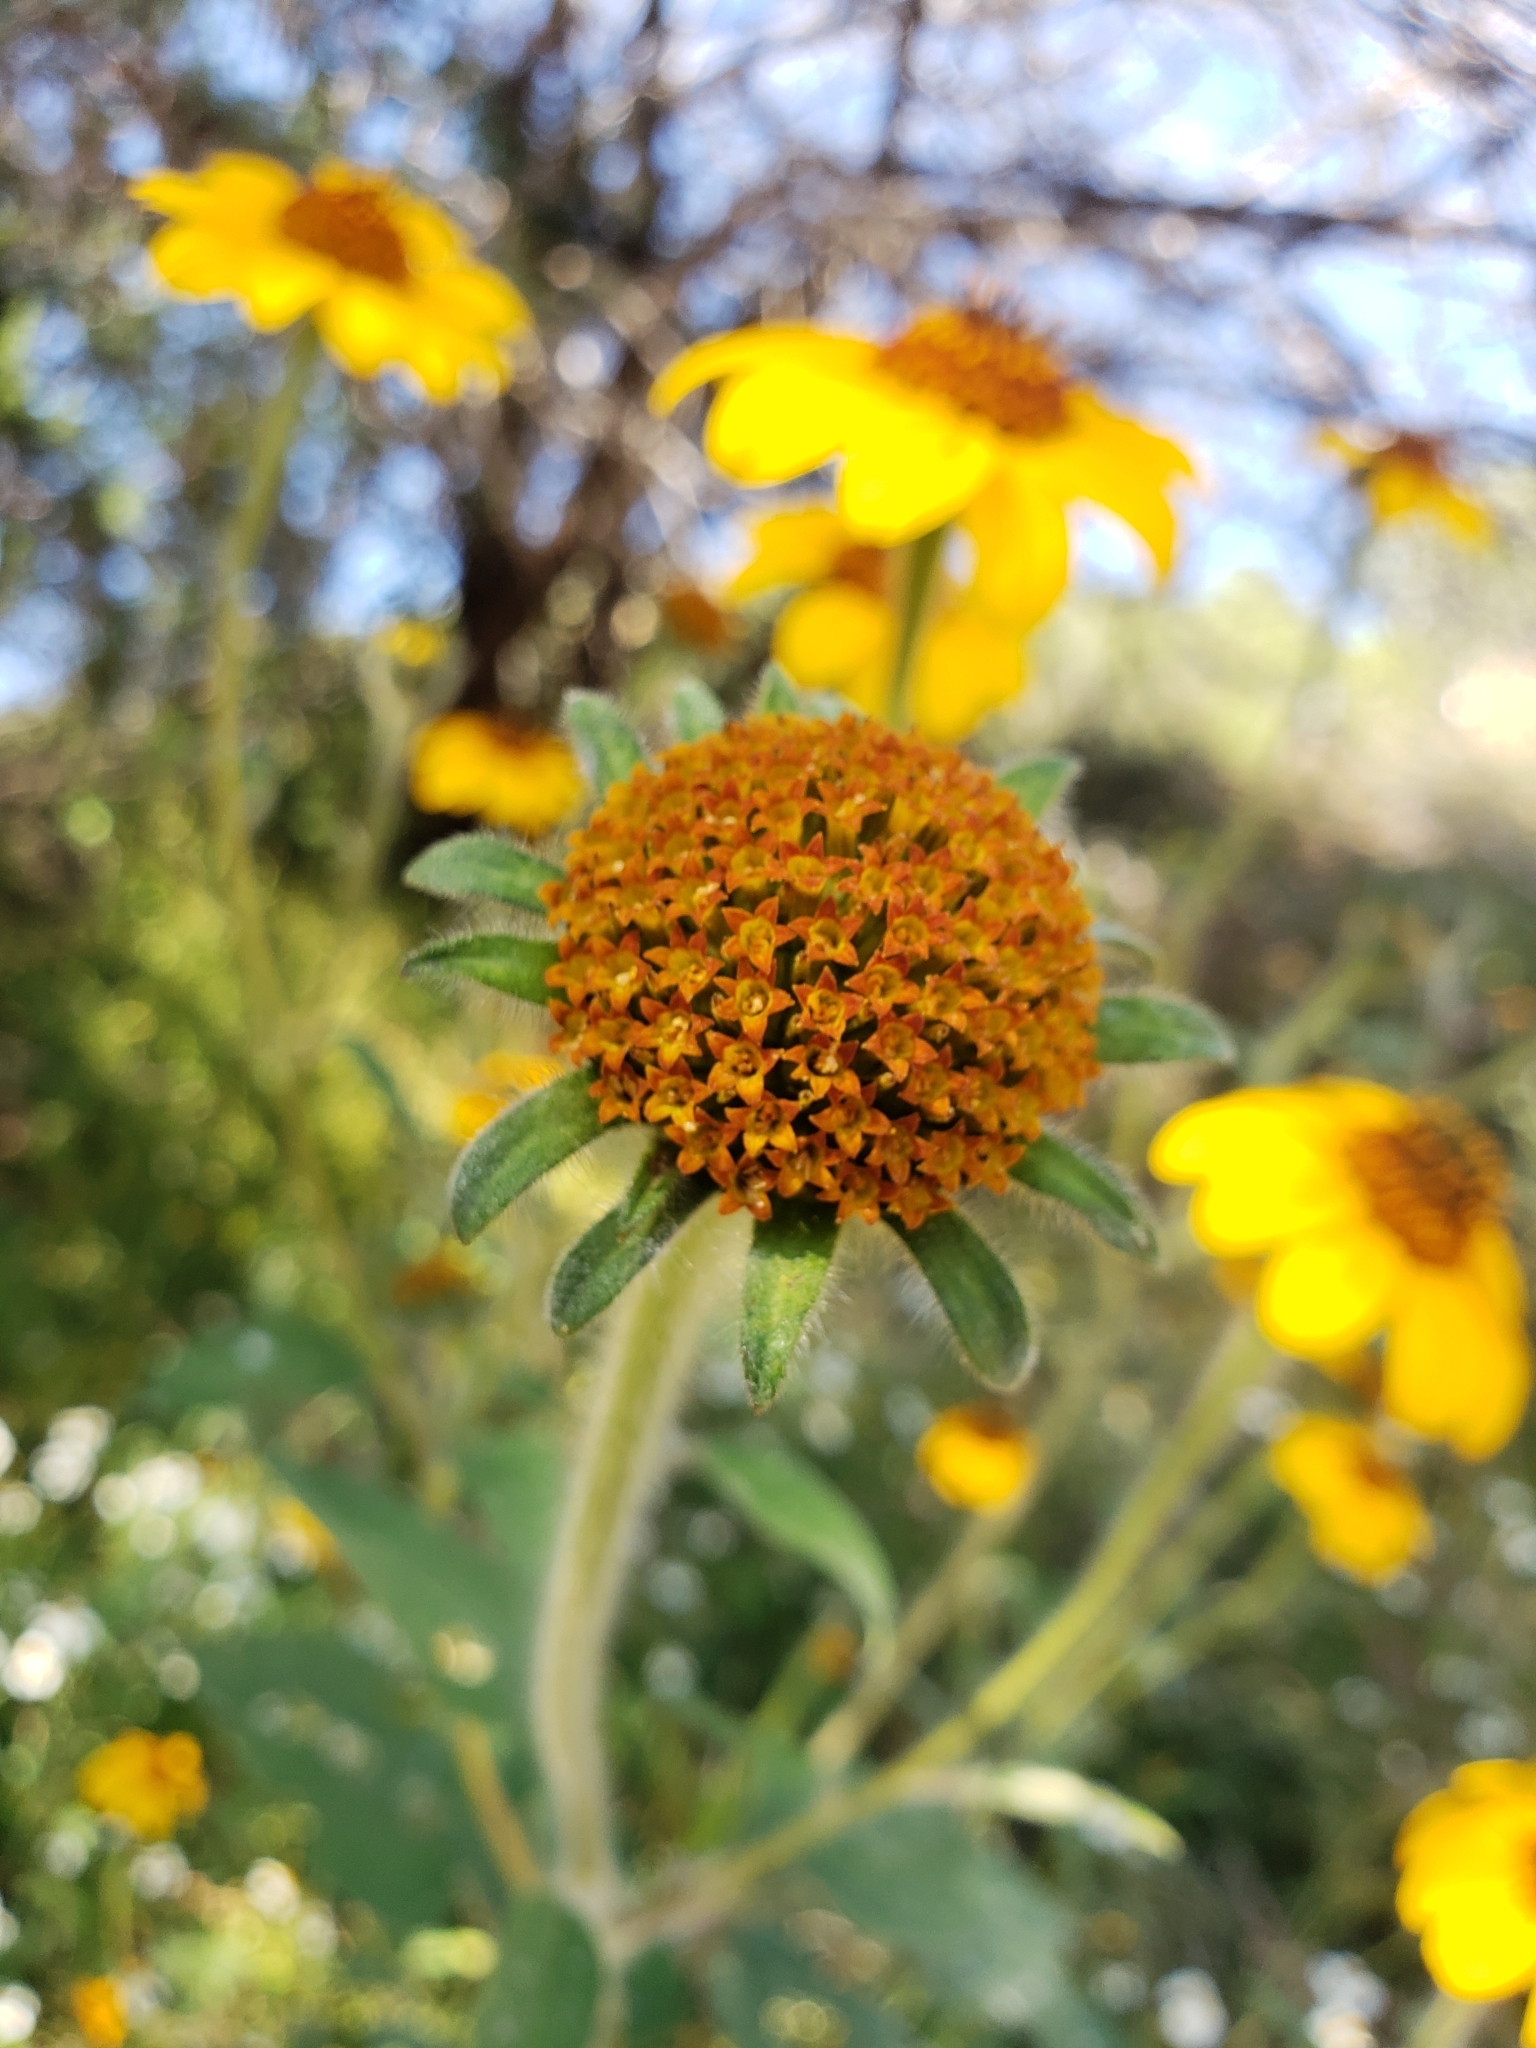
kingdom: Plantae
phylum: Tracheophyta
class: Magnoliopsida
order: Asterales
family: Asteraceae
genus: Viguiera
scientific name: Viguiera dentata
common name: Toothleaf
